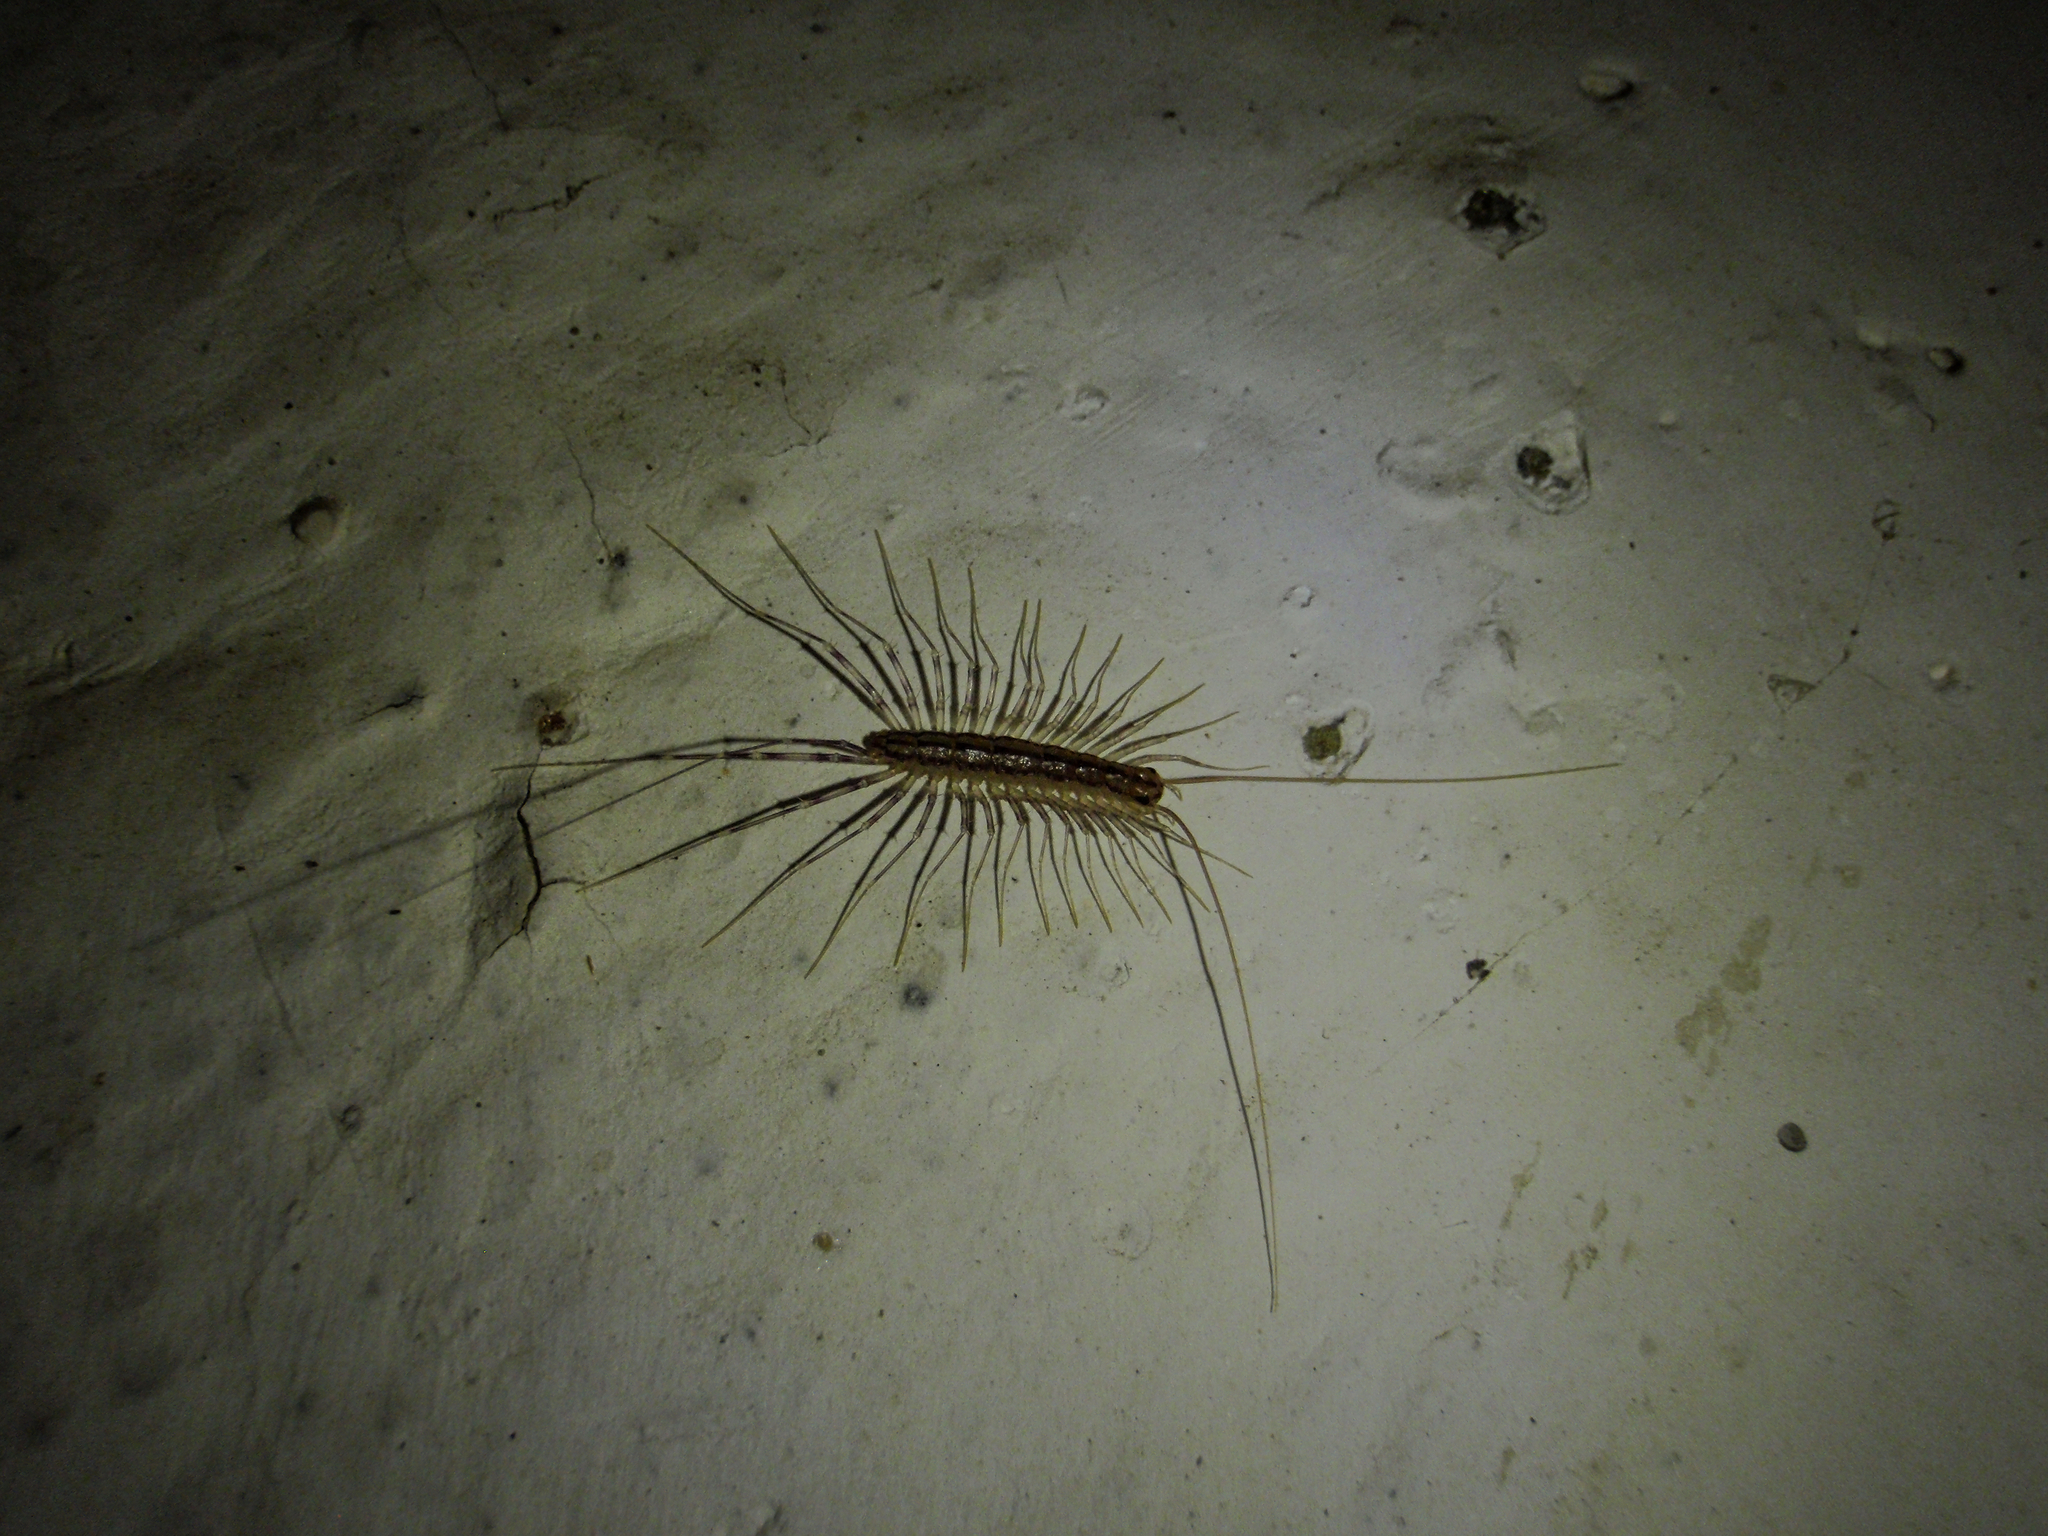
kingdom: Animalia
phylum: Arthropoda
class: Chilopoda
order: Scutigeromorpha
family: Scutigeridae
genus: Scutigera
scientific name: Scutigera coleoptrata
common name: House centipede
